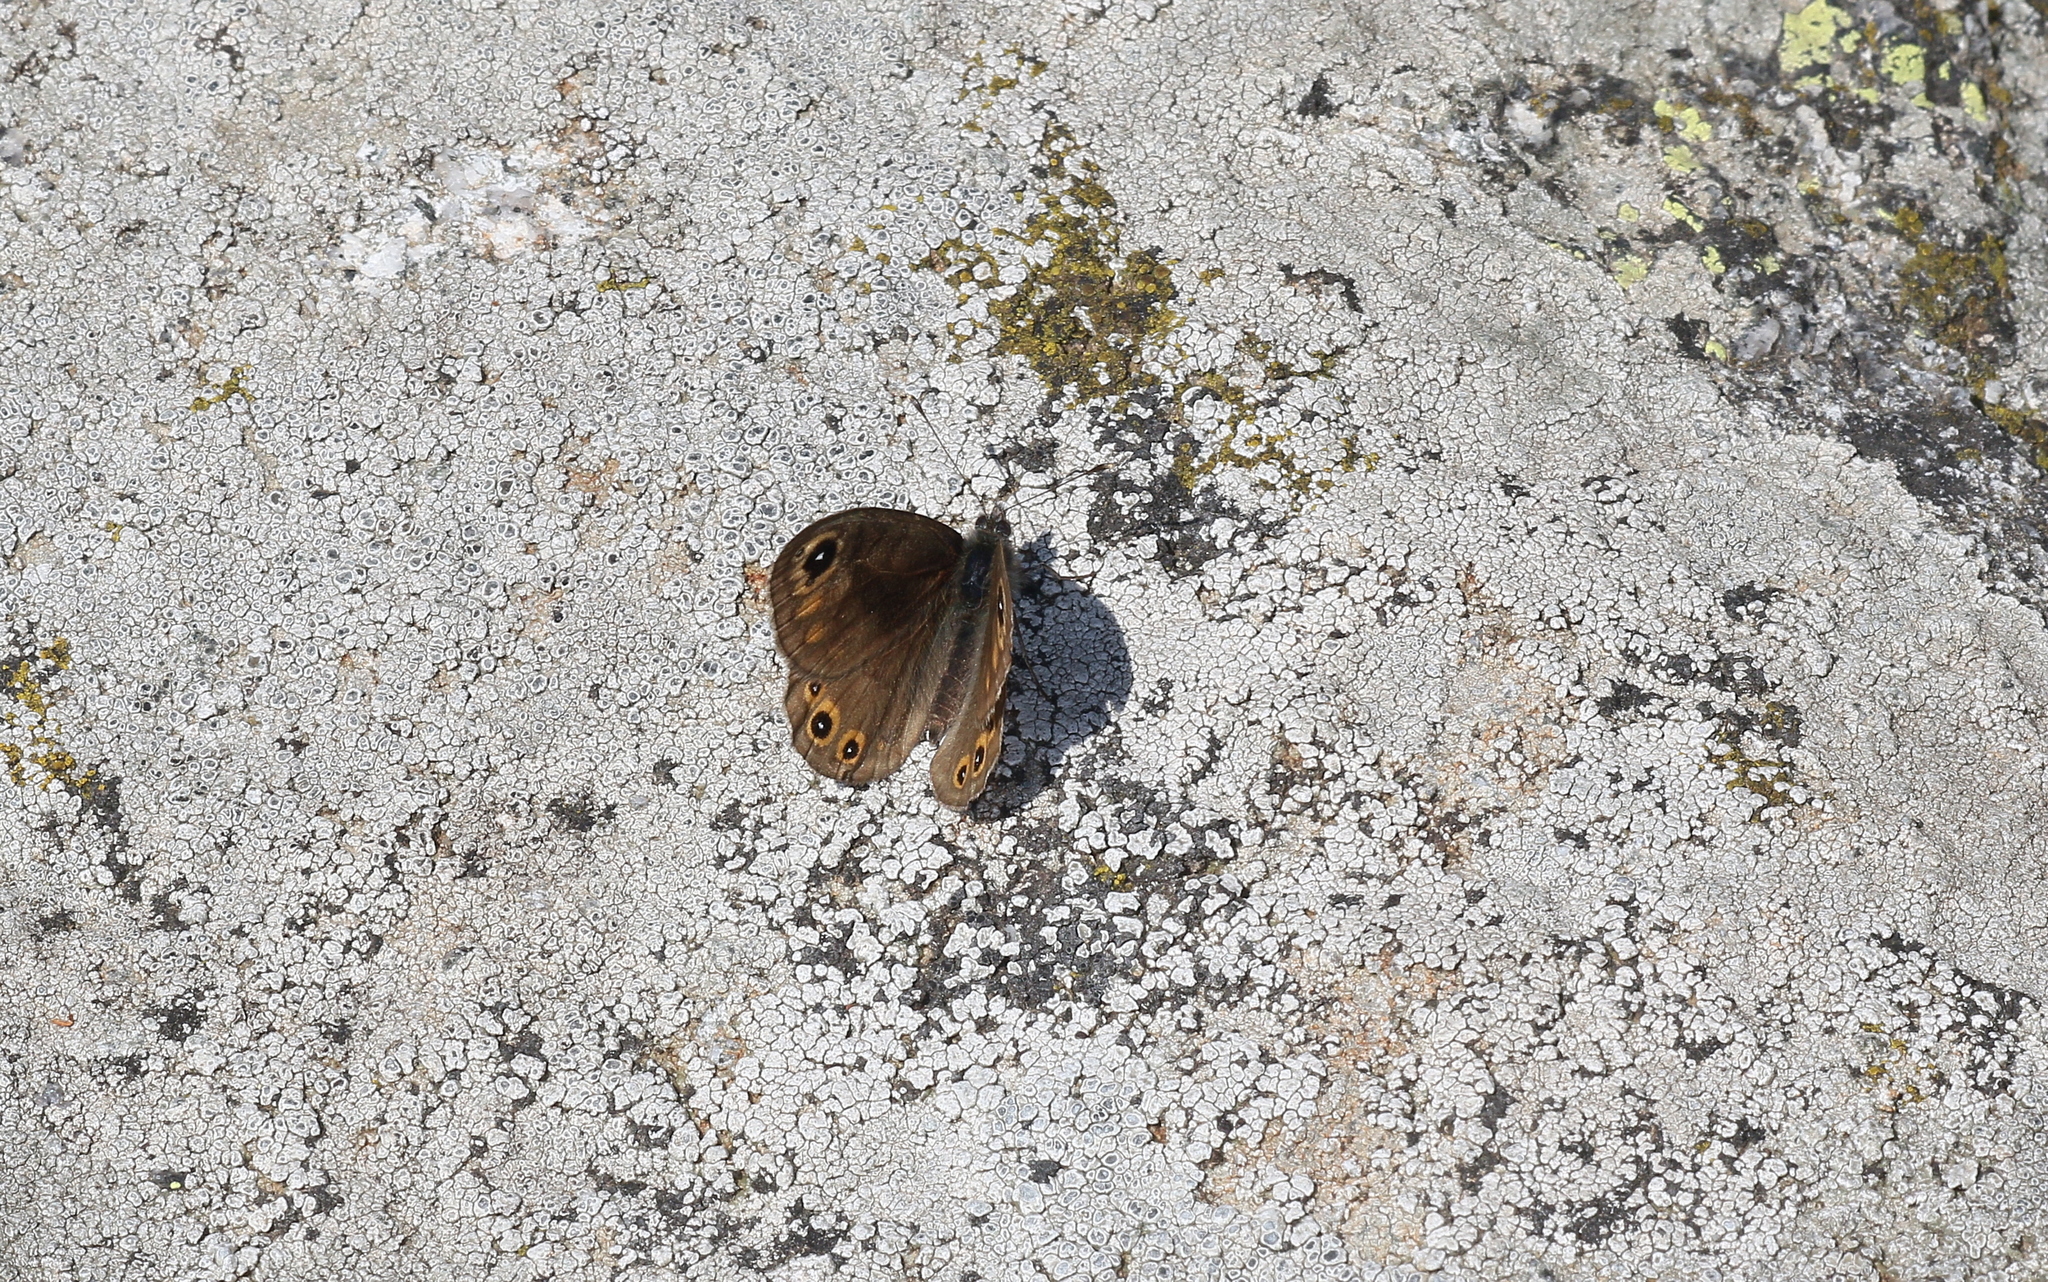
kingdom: Animalia
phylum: Arthropoda
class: Insecta
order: Lepidoptera
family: Nymphalidae
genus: Pararge
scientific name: Pararge petropolitana
